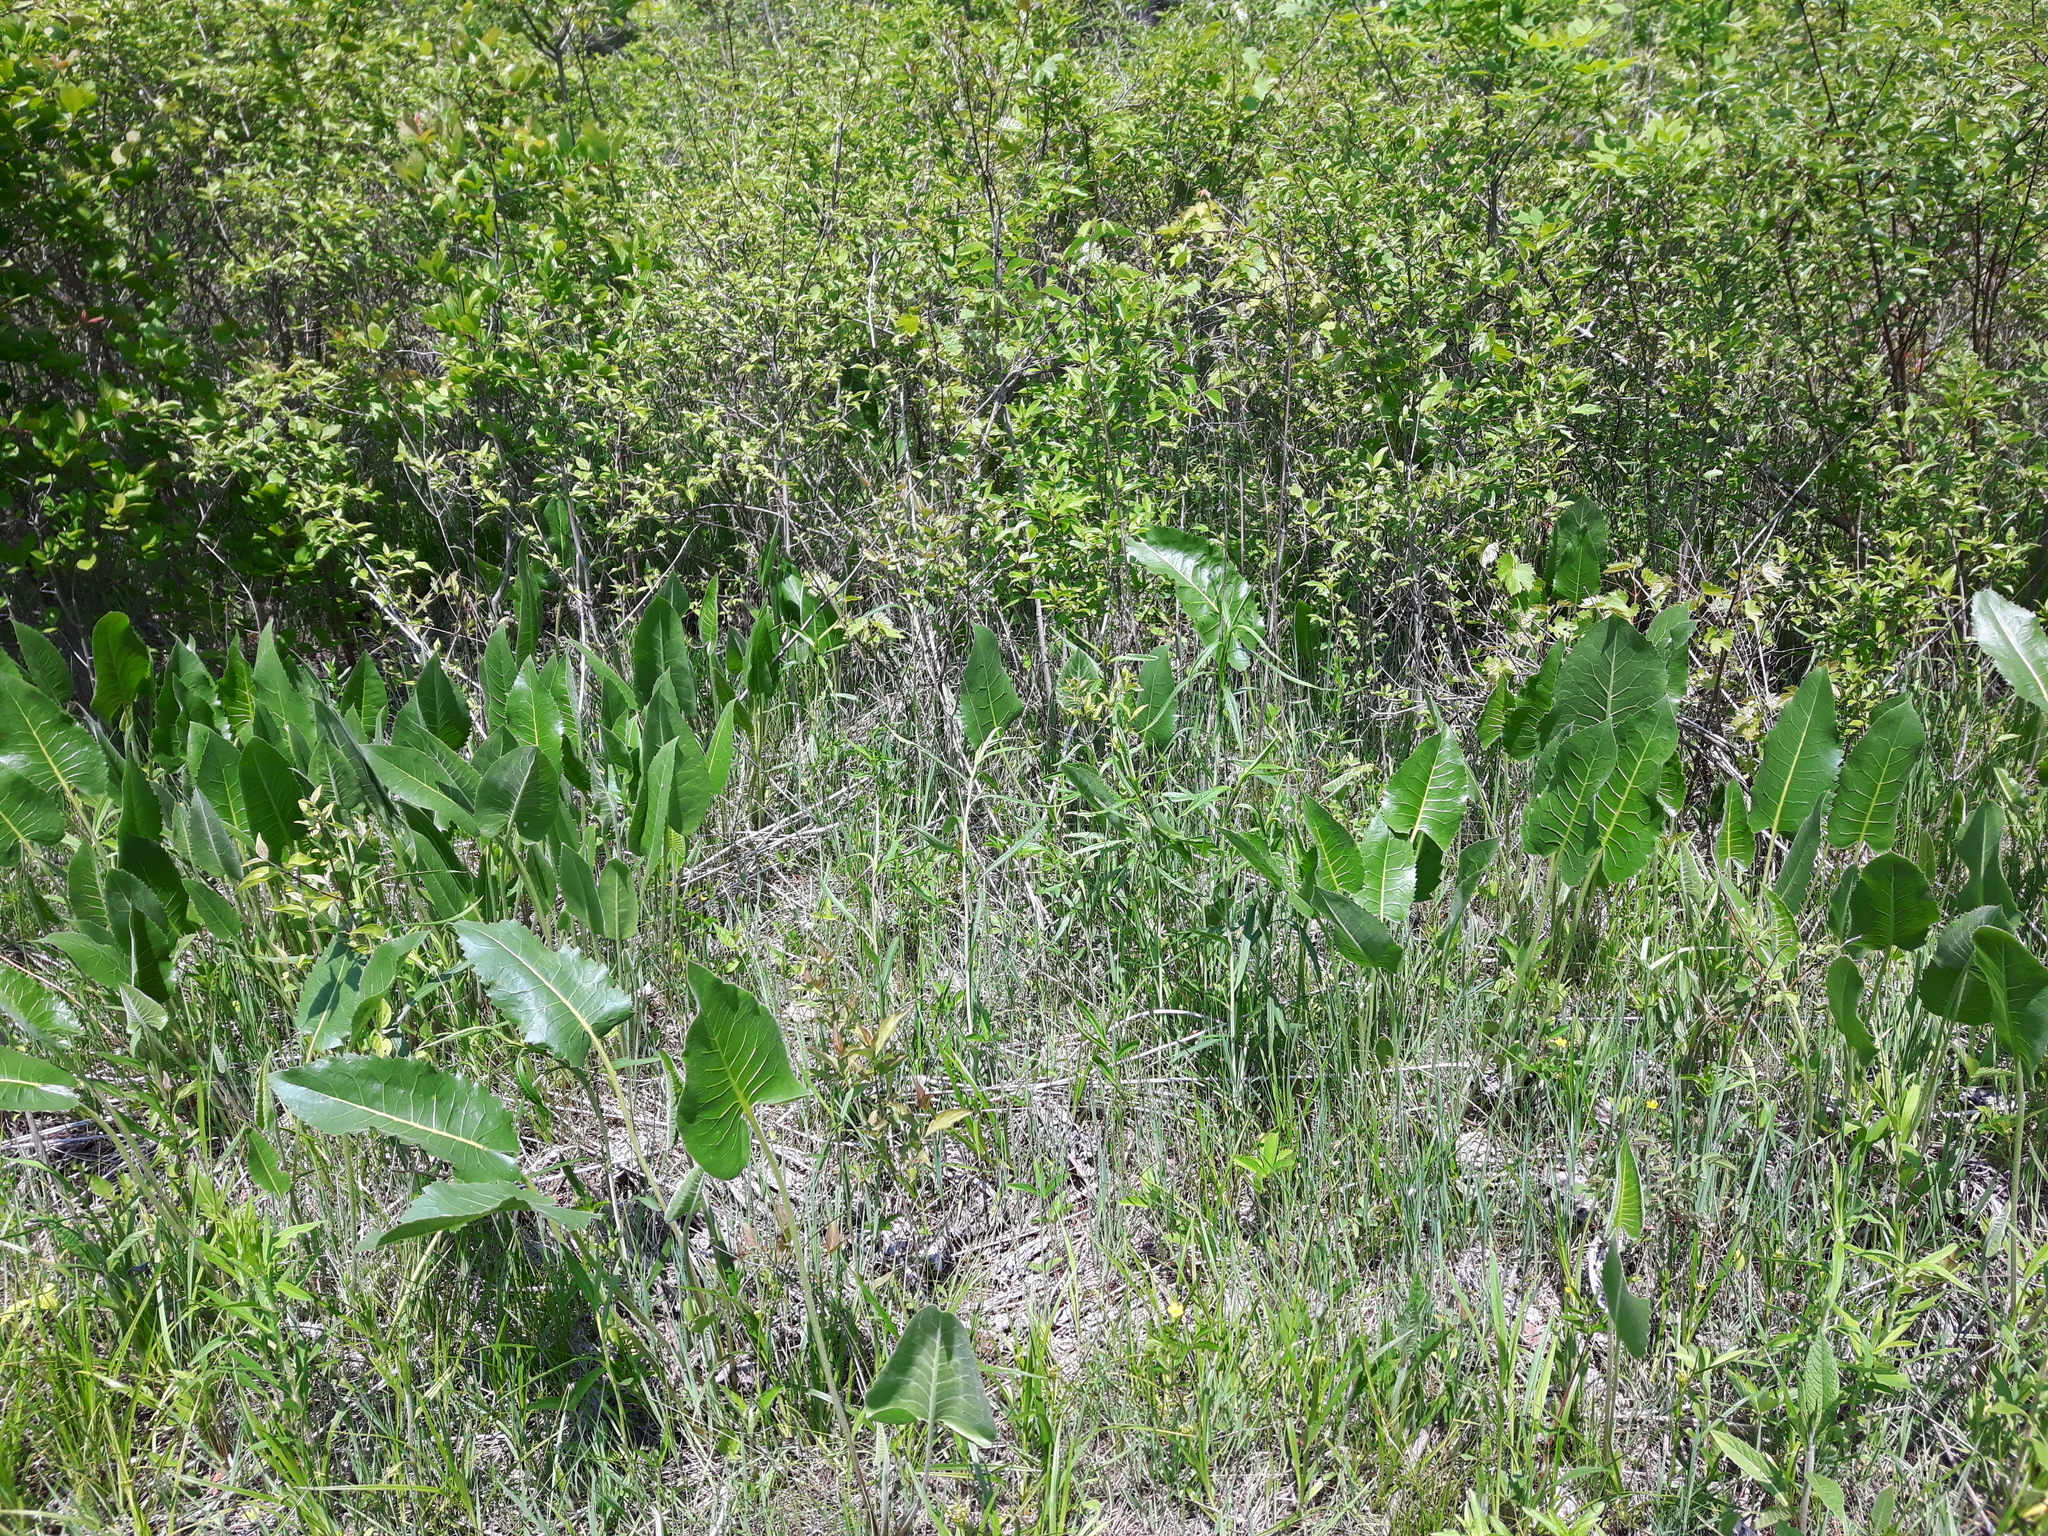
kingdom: Plantae
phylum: Tracheophyta
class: Magnoliopsida
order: Asterales
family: Asteraceae
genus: Silphium
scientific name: Silphium terebinthinaceum
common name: Basal-leaf rosinweed
